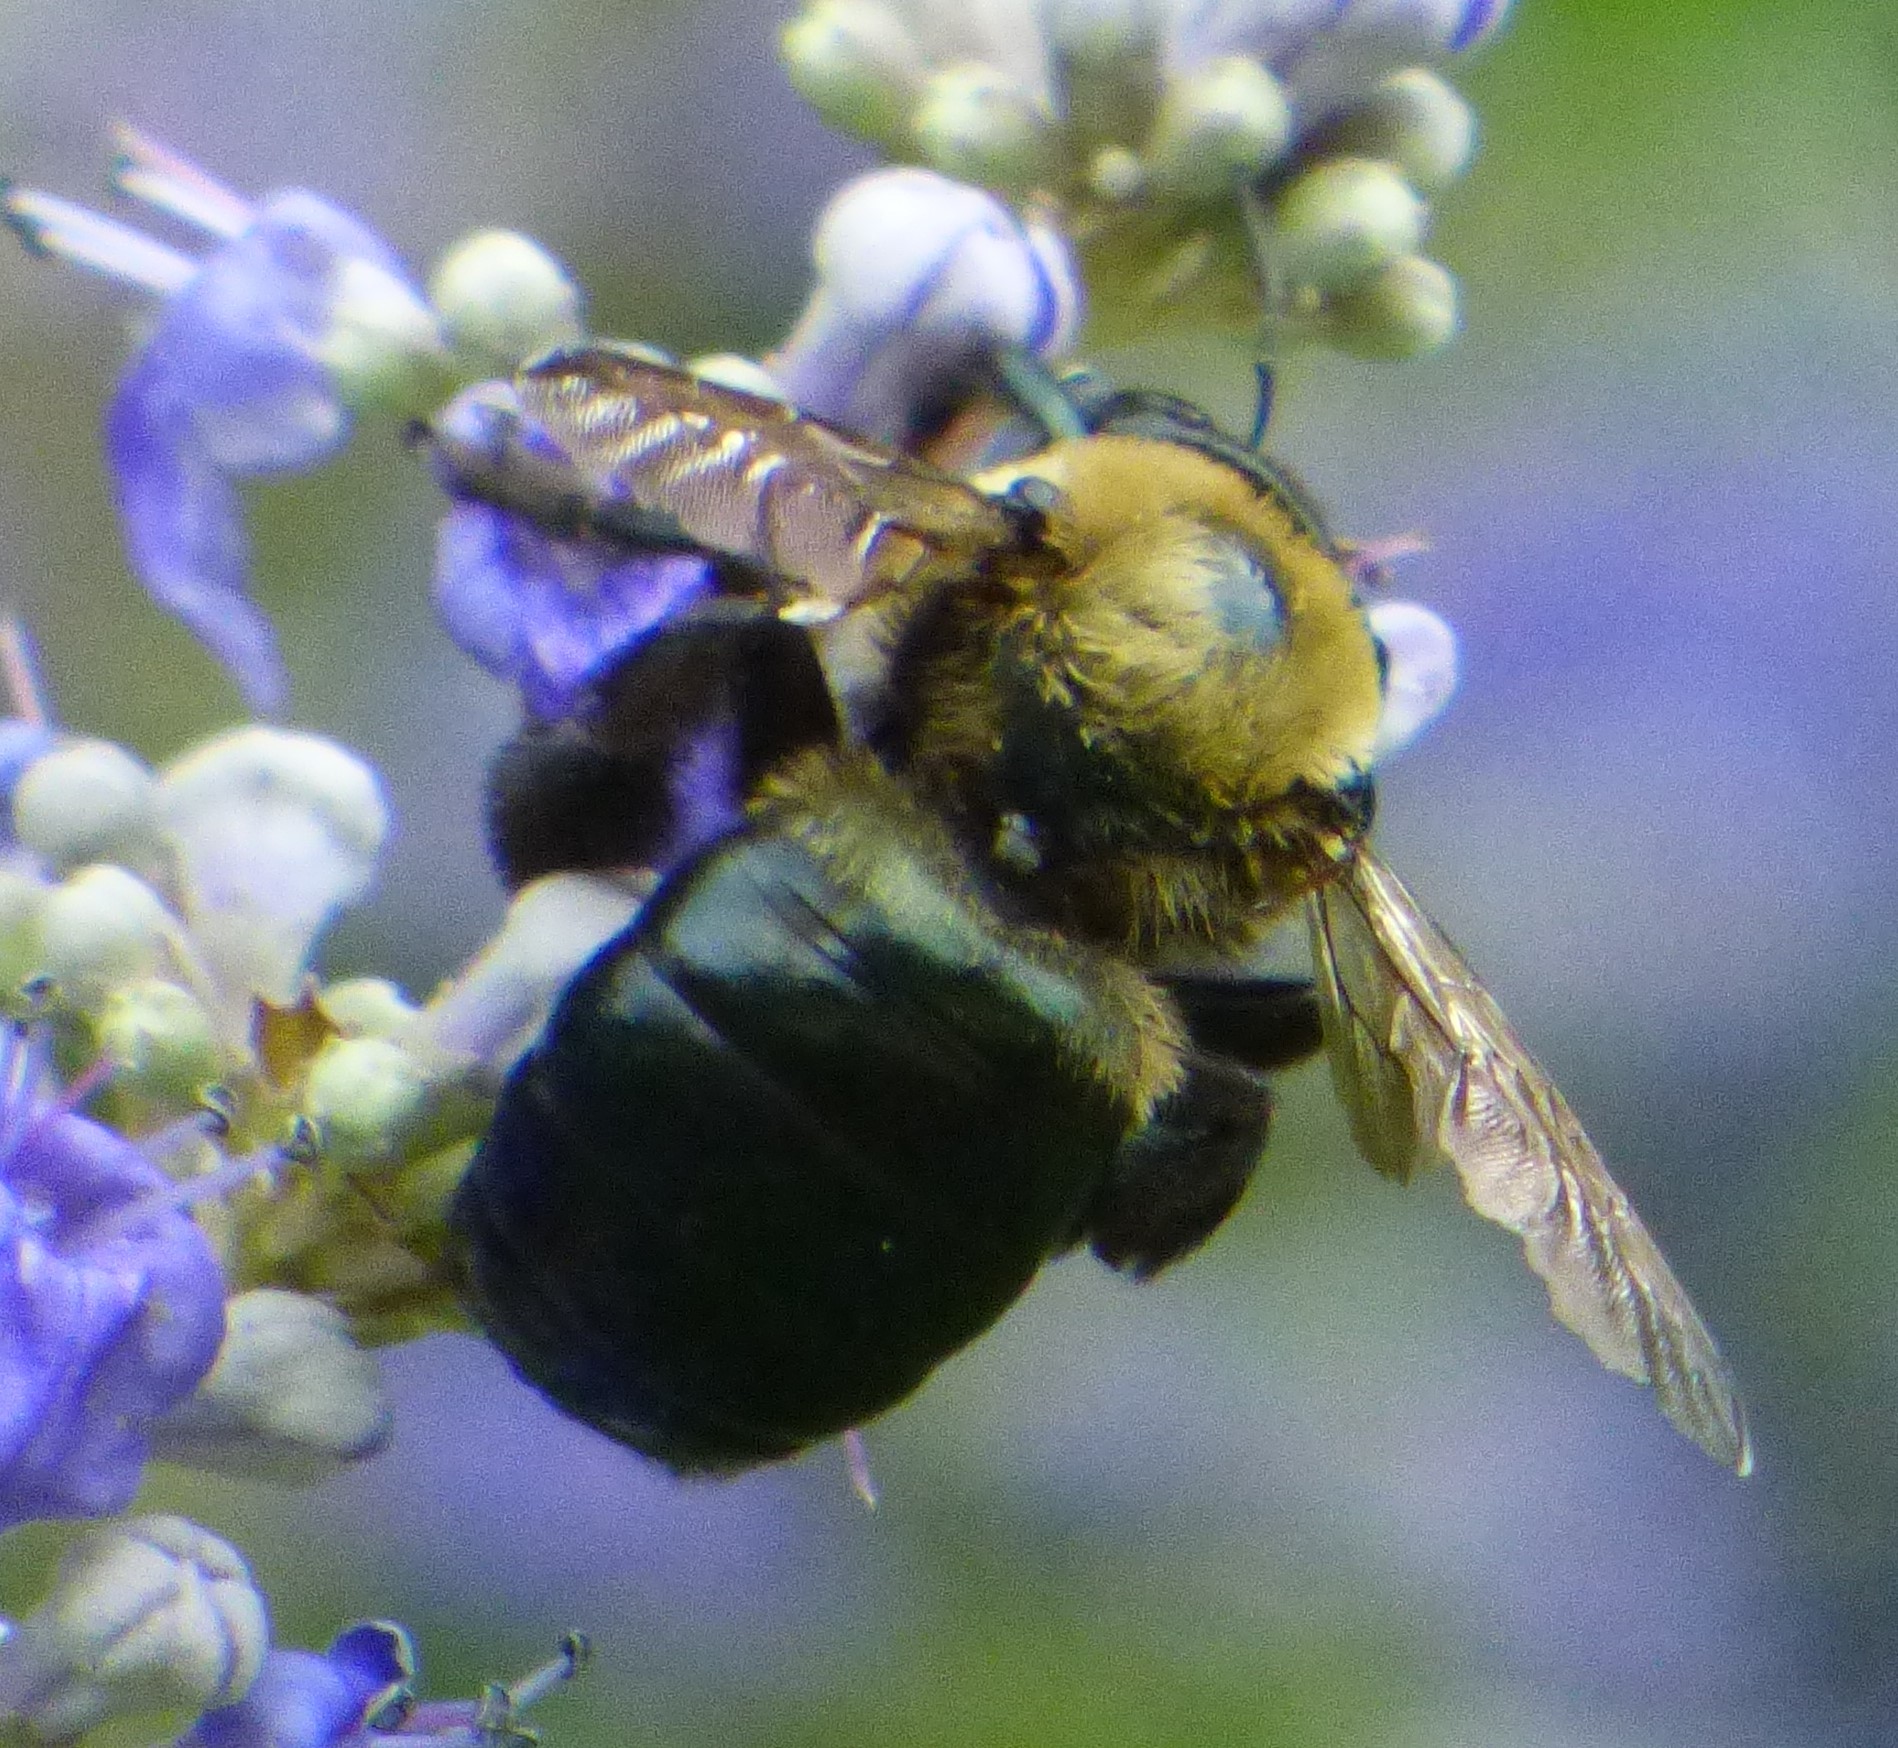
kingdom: Animalia
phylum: Arthropoda
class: Insecta
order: Hymenoptera
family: Apidae
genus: Xylocopa
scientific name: Xylocopa virginica
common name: Carpenter bee
